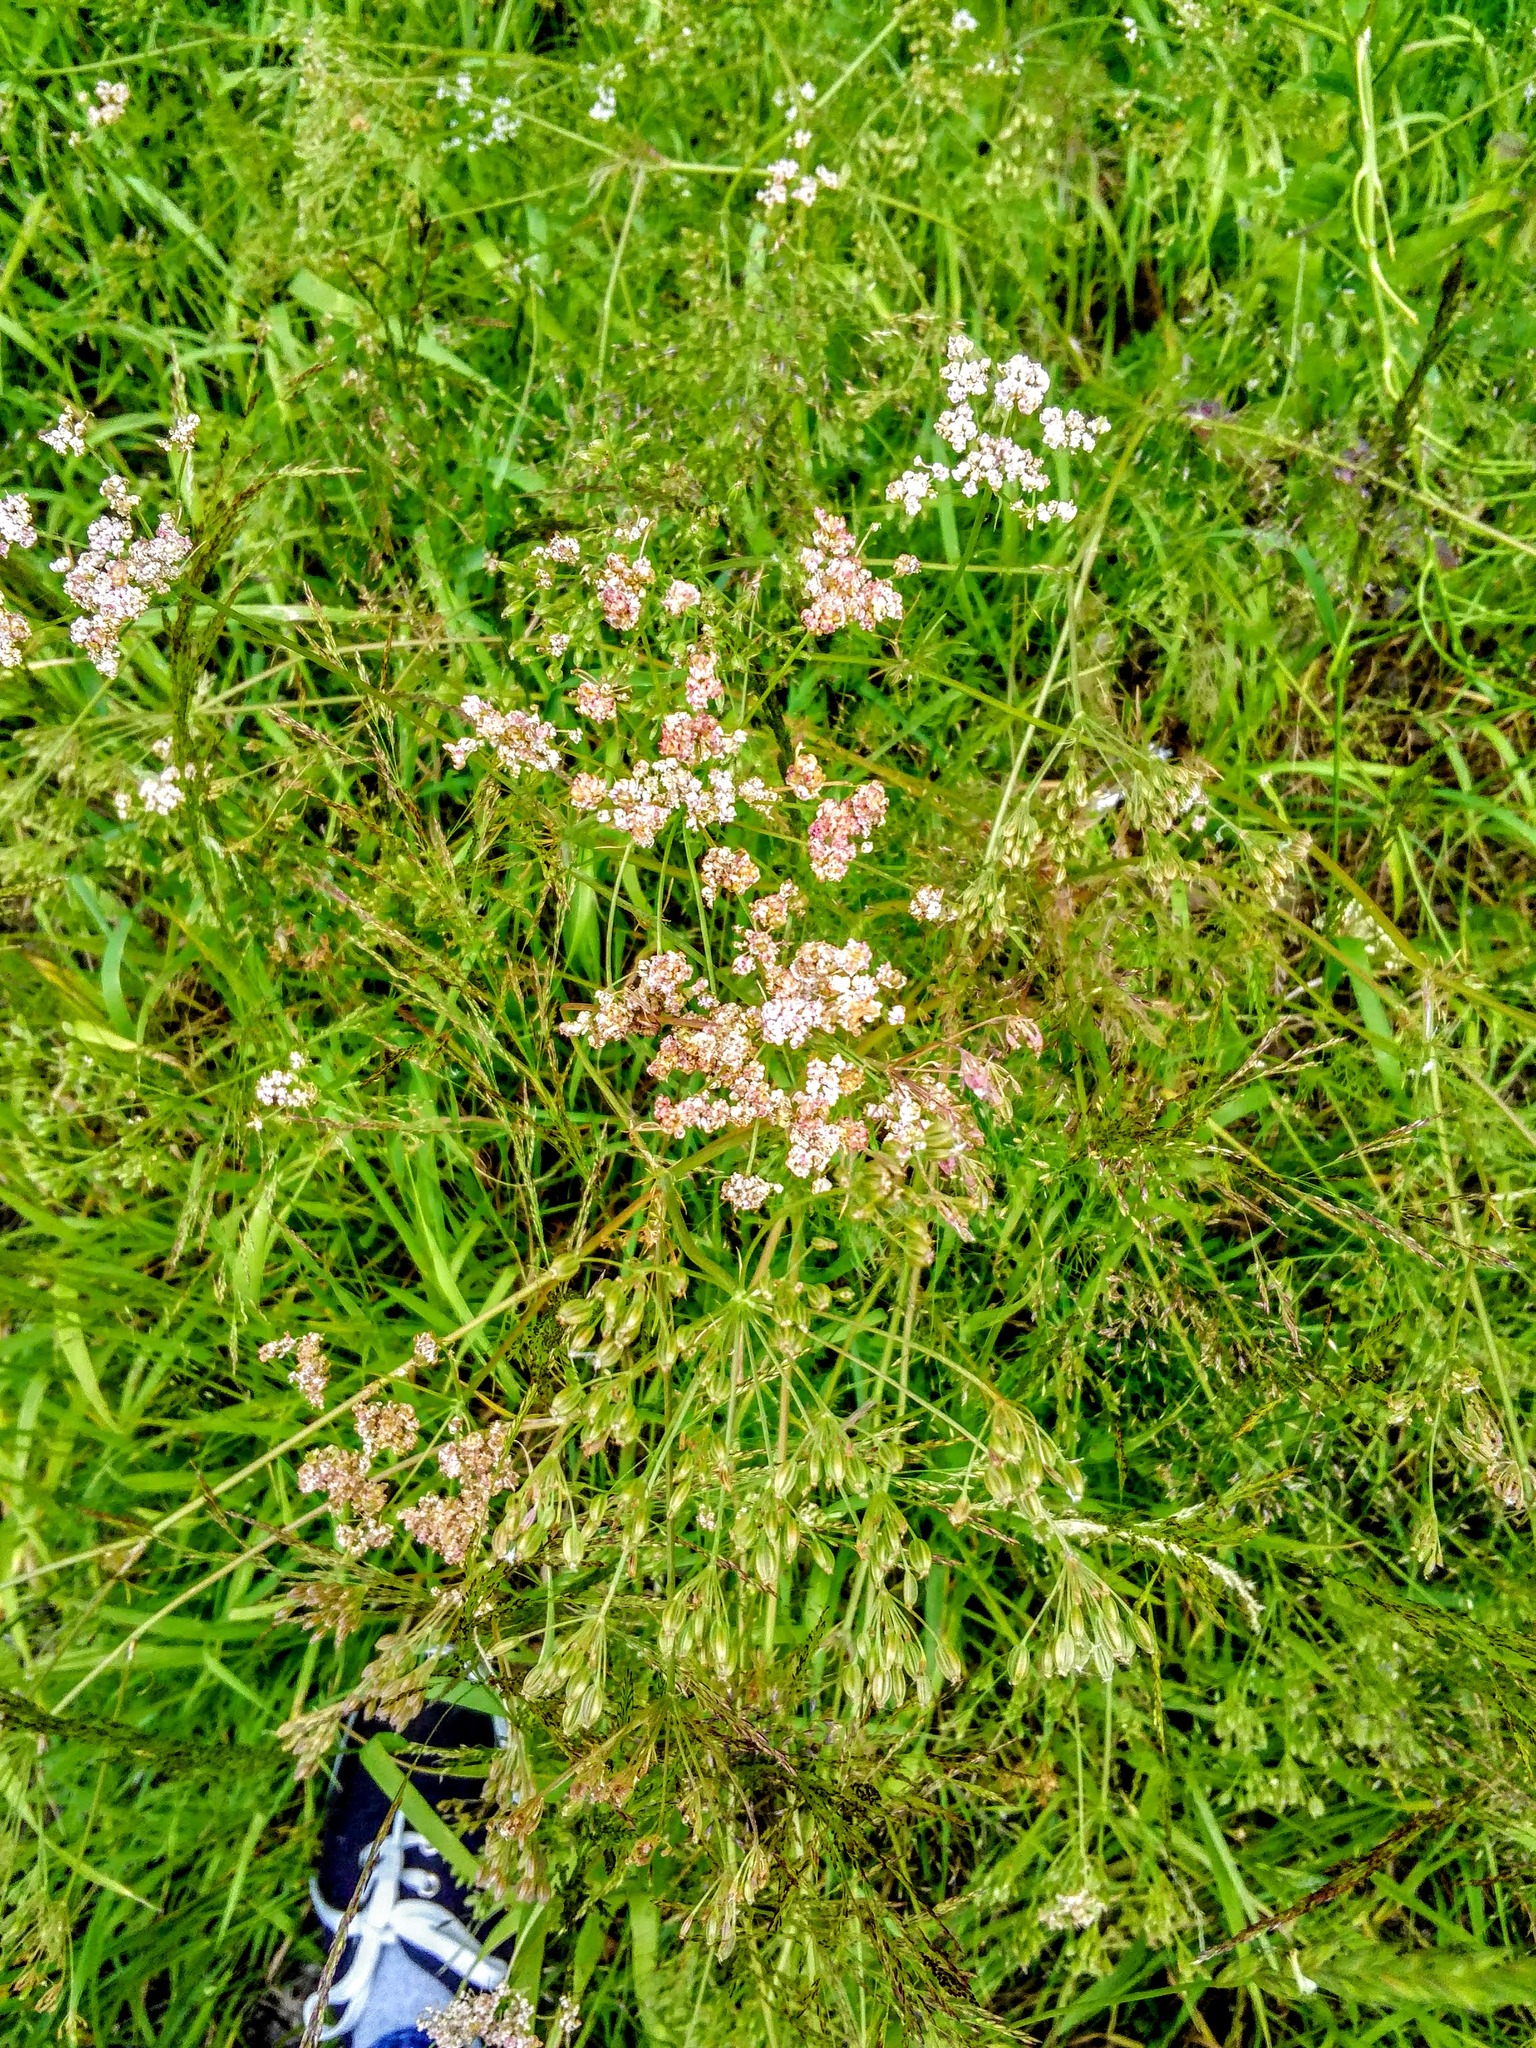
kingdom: Plantae
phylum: Tracheophyta
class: Magnoliopsida
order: Apiales
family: Apiaceae
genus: Carum
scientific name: Carum carvi
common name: Caraway
